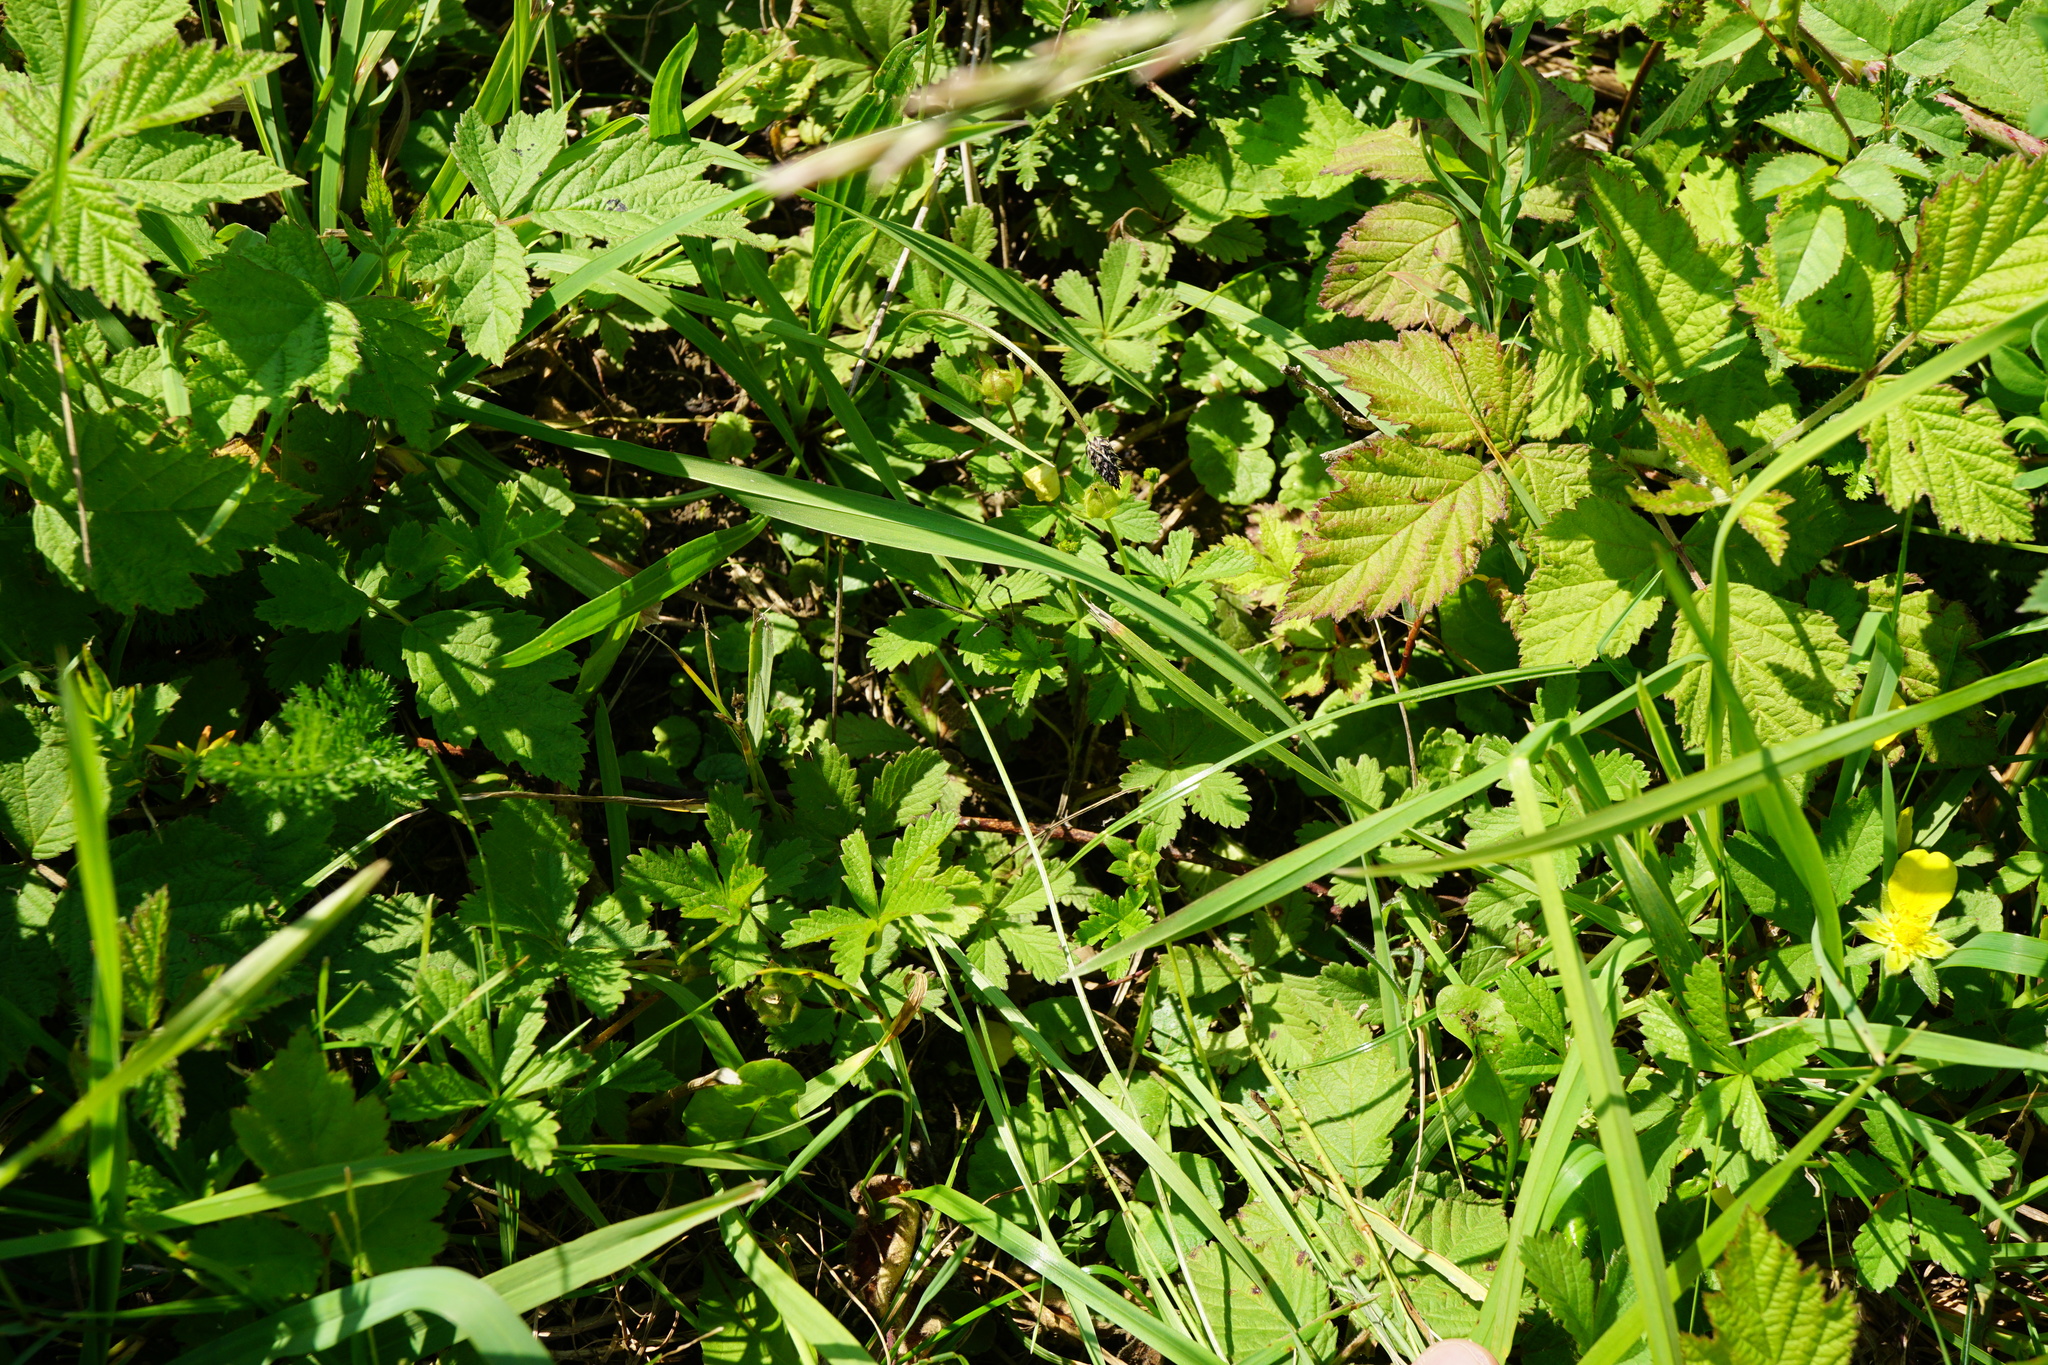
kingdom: Plantae
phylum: Tracheophyta
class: Magnoliopsida
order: Rosales
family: Rosaceae
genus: Potentilla
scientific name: Potentilla reptans
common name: Creeping cinquefoil
